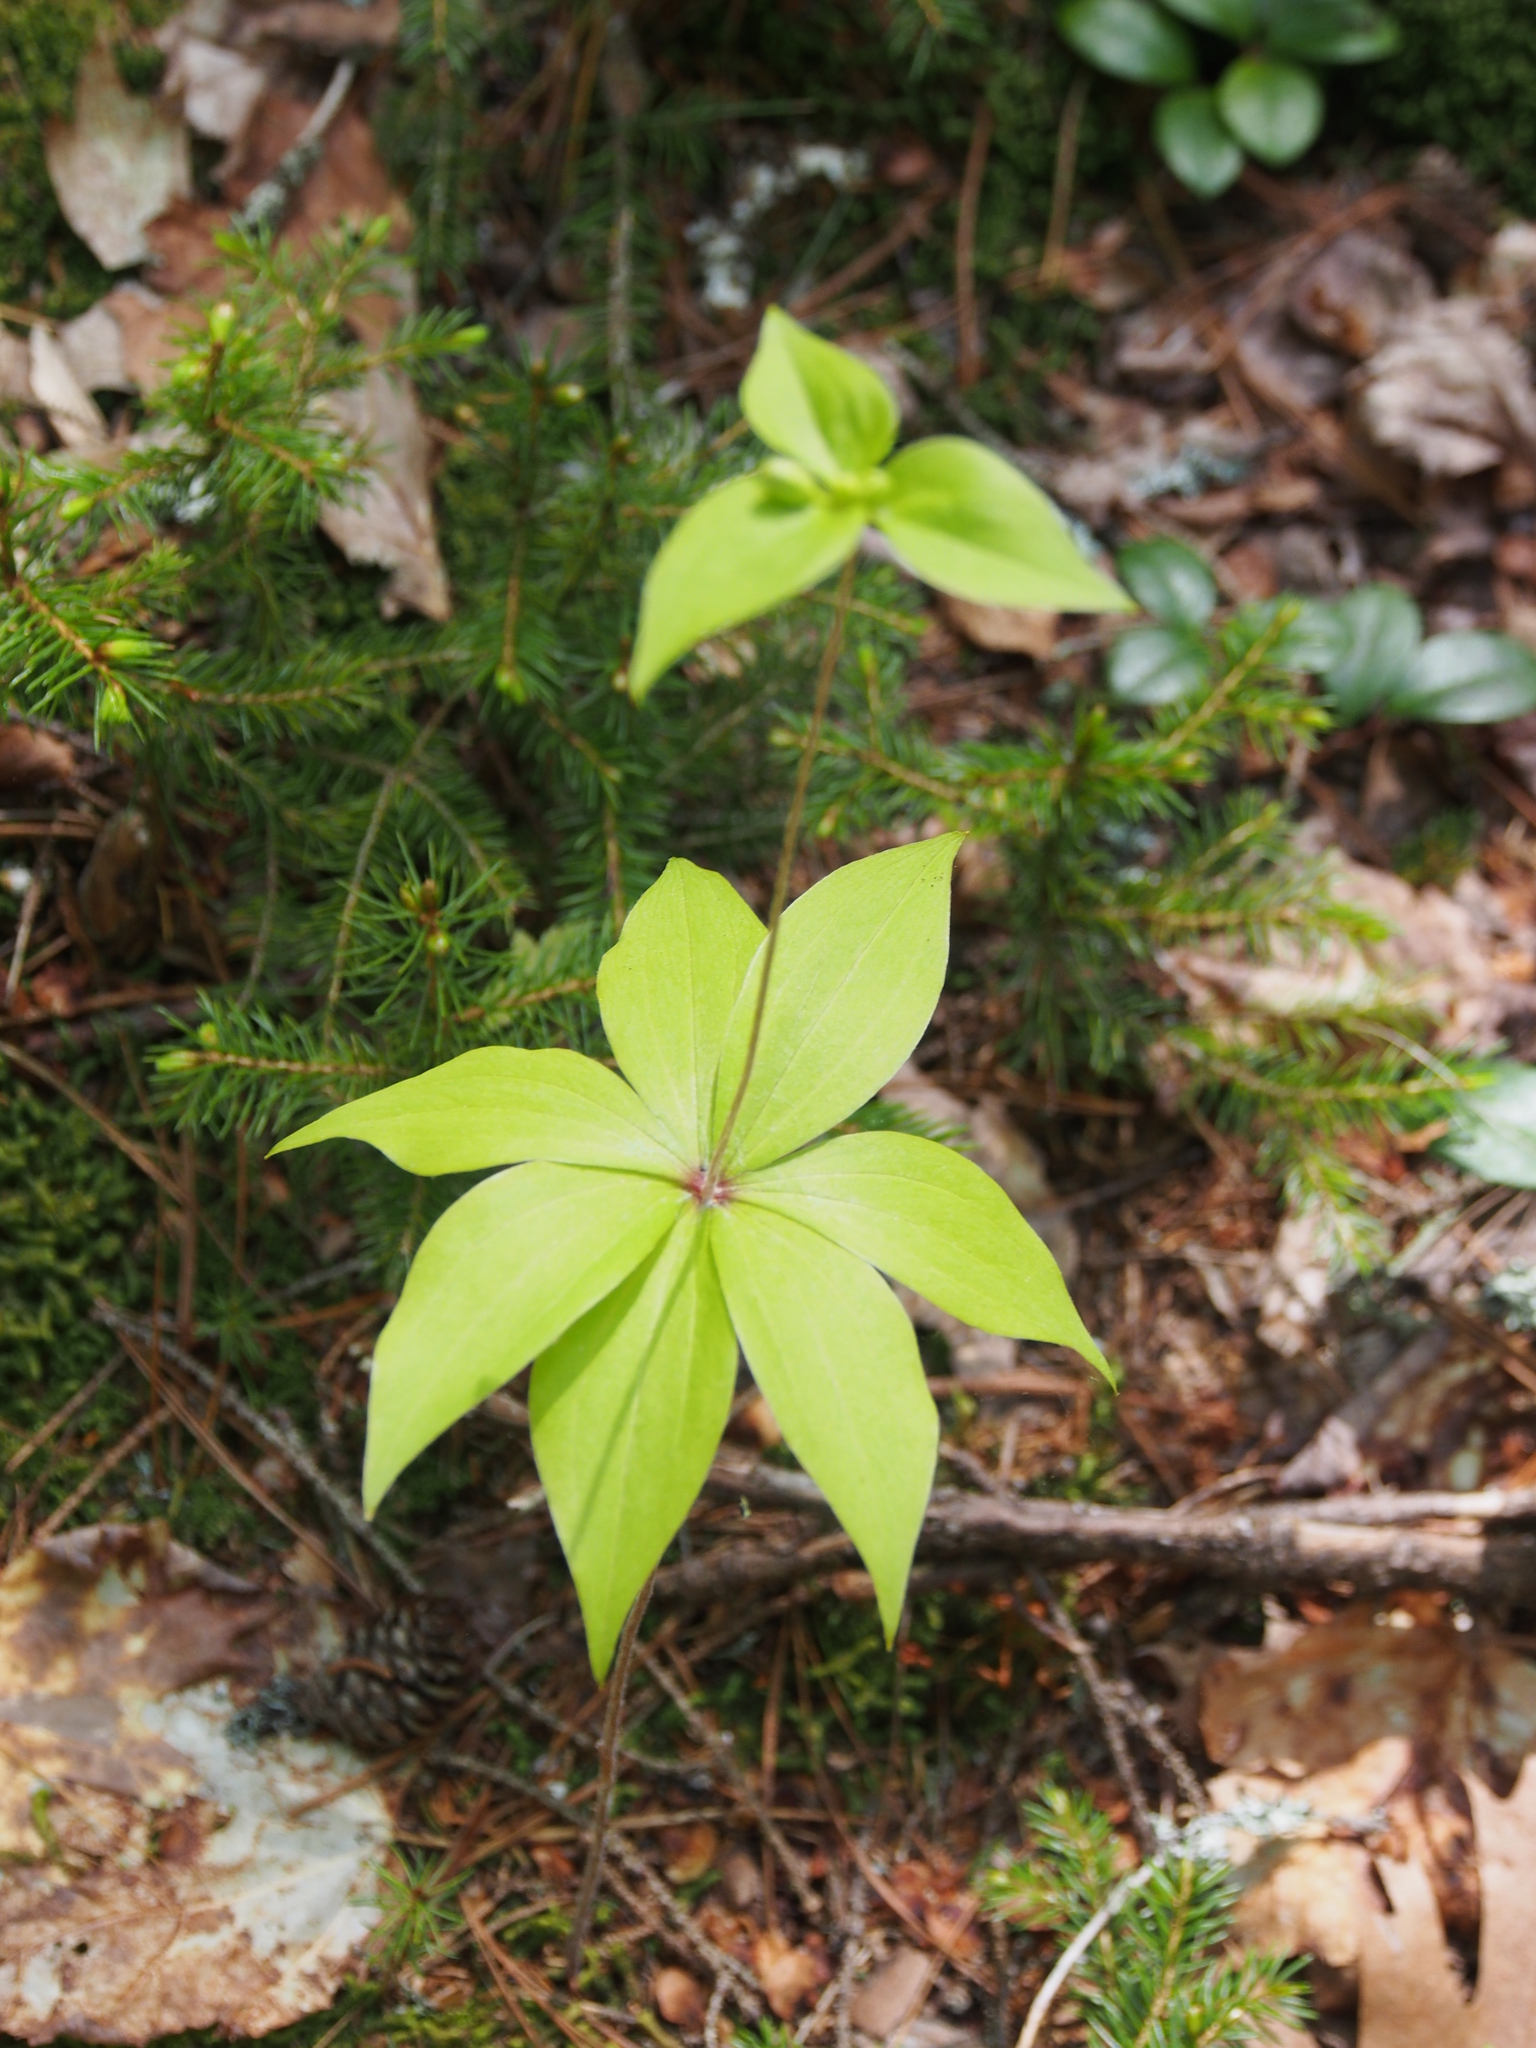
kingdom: Plantae
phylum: Tracheophyta
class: Liliopsida
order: Liliales
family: Liliaceae
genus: Medeola
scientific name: Medeola virginiana
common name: Indian cucumber-root
